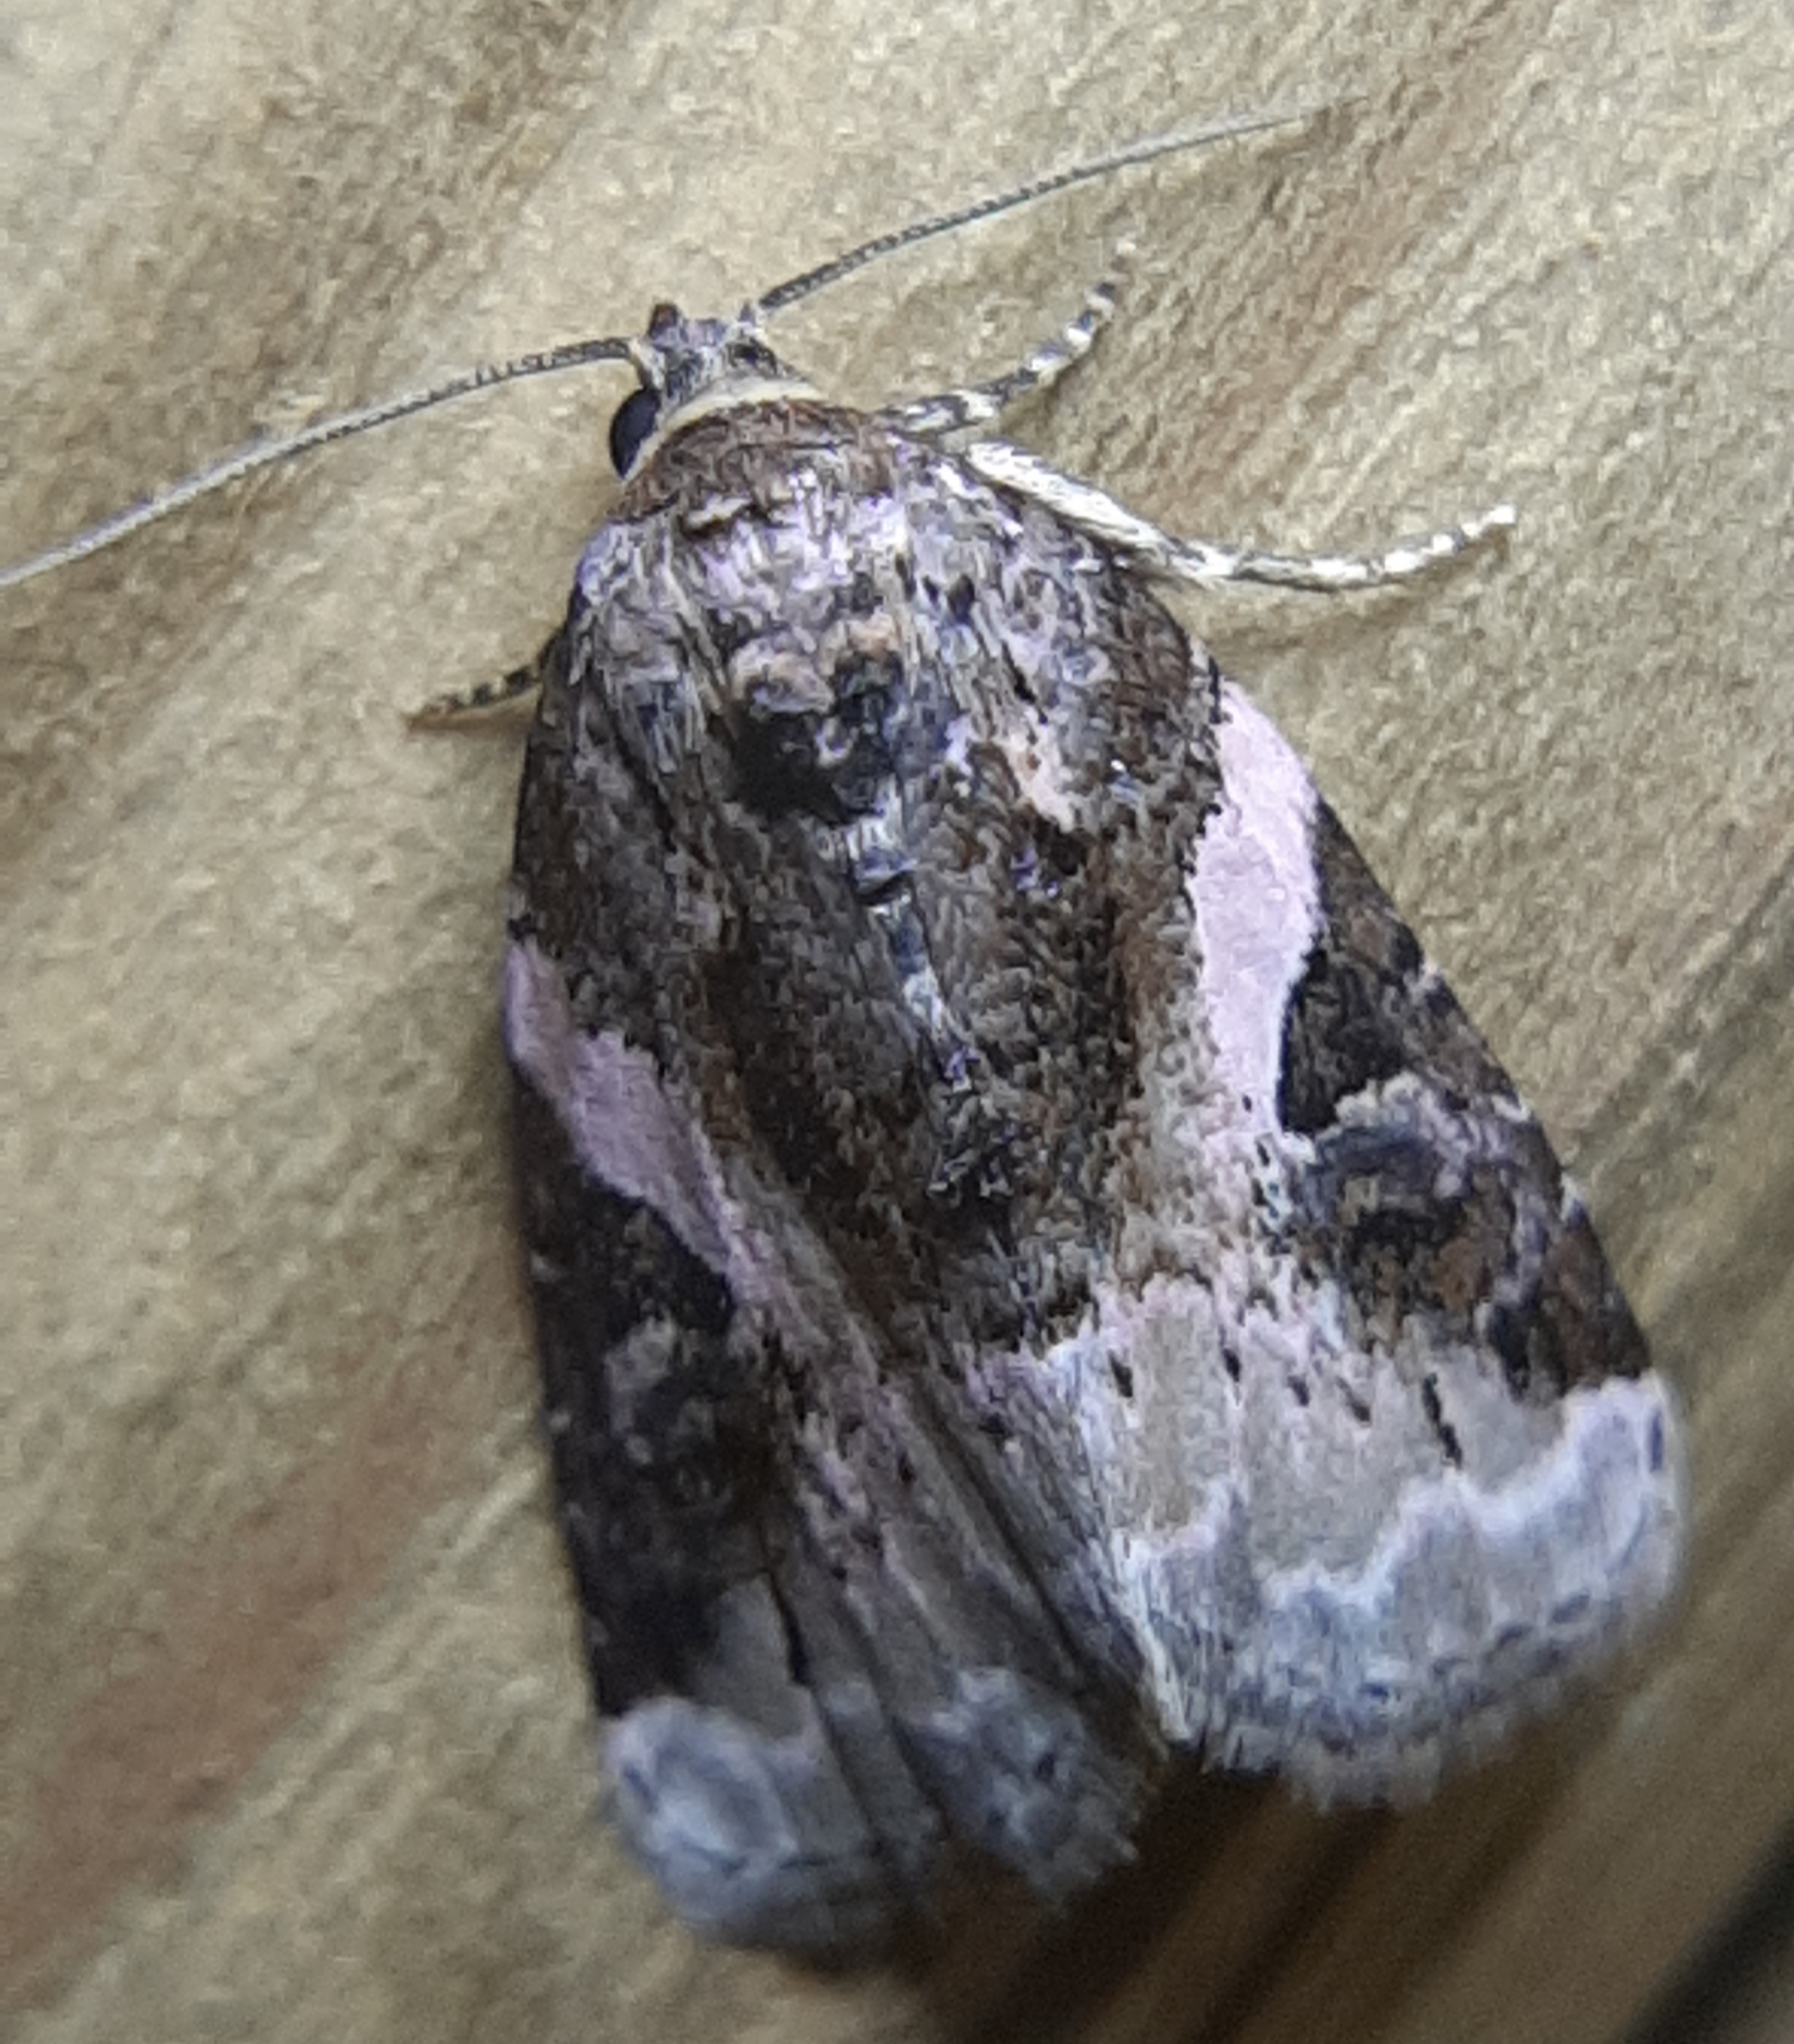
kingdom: Animalia
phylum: Arthropoda
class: Insecta
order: Lepidoptera
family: Noctuidae
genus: Pseudeustrotia
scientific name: Pseudeustrotia carneola
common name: Pink-barred lithacodia moth
